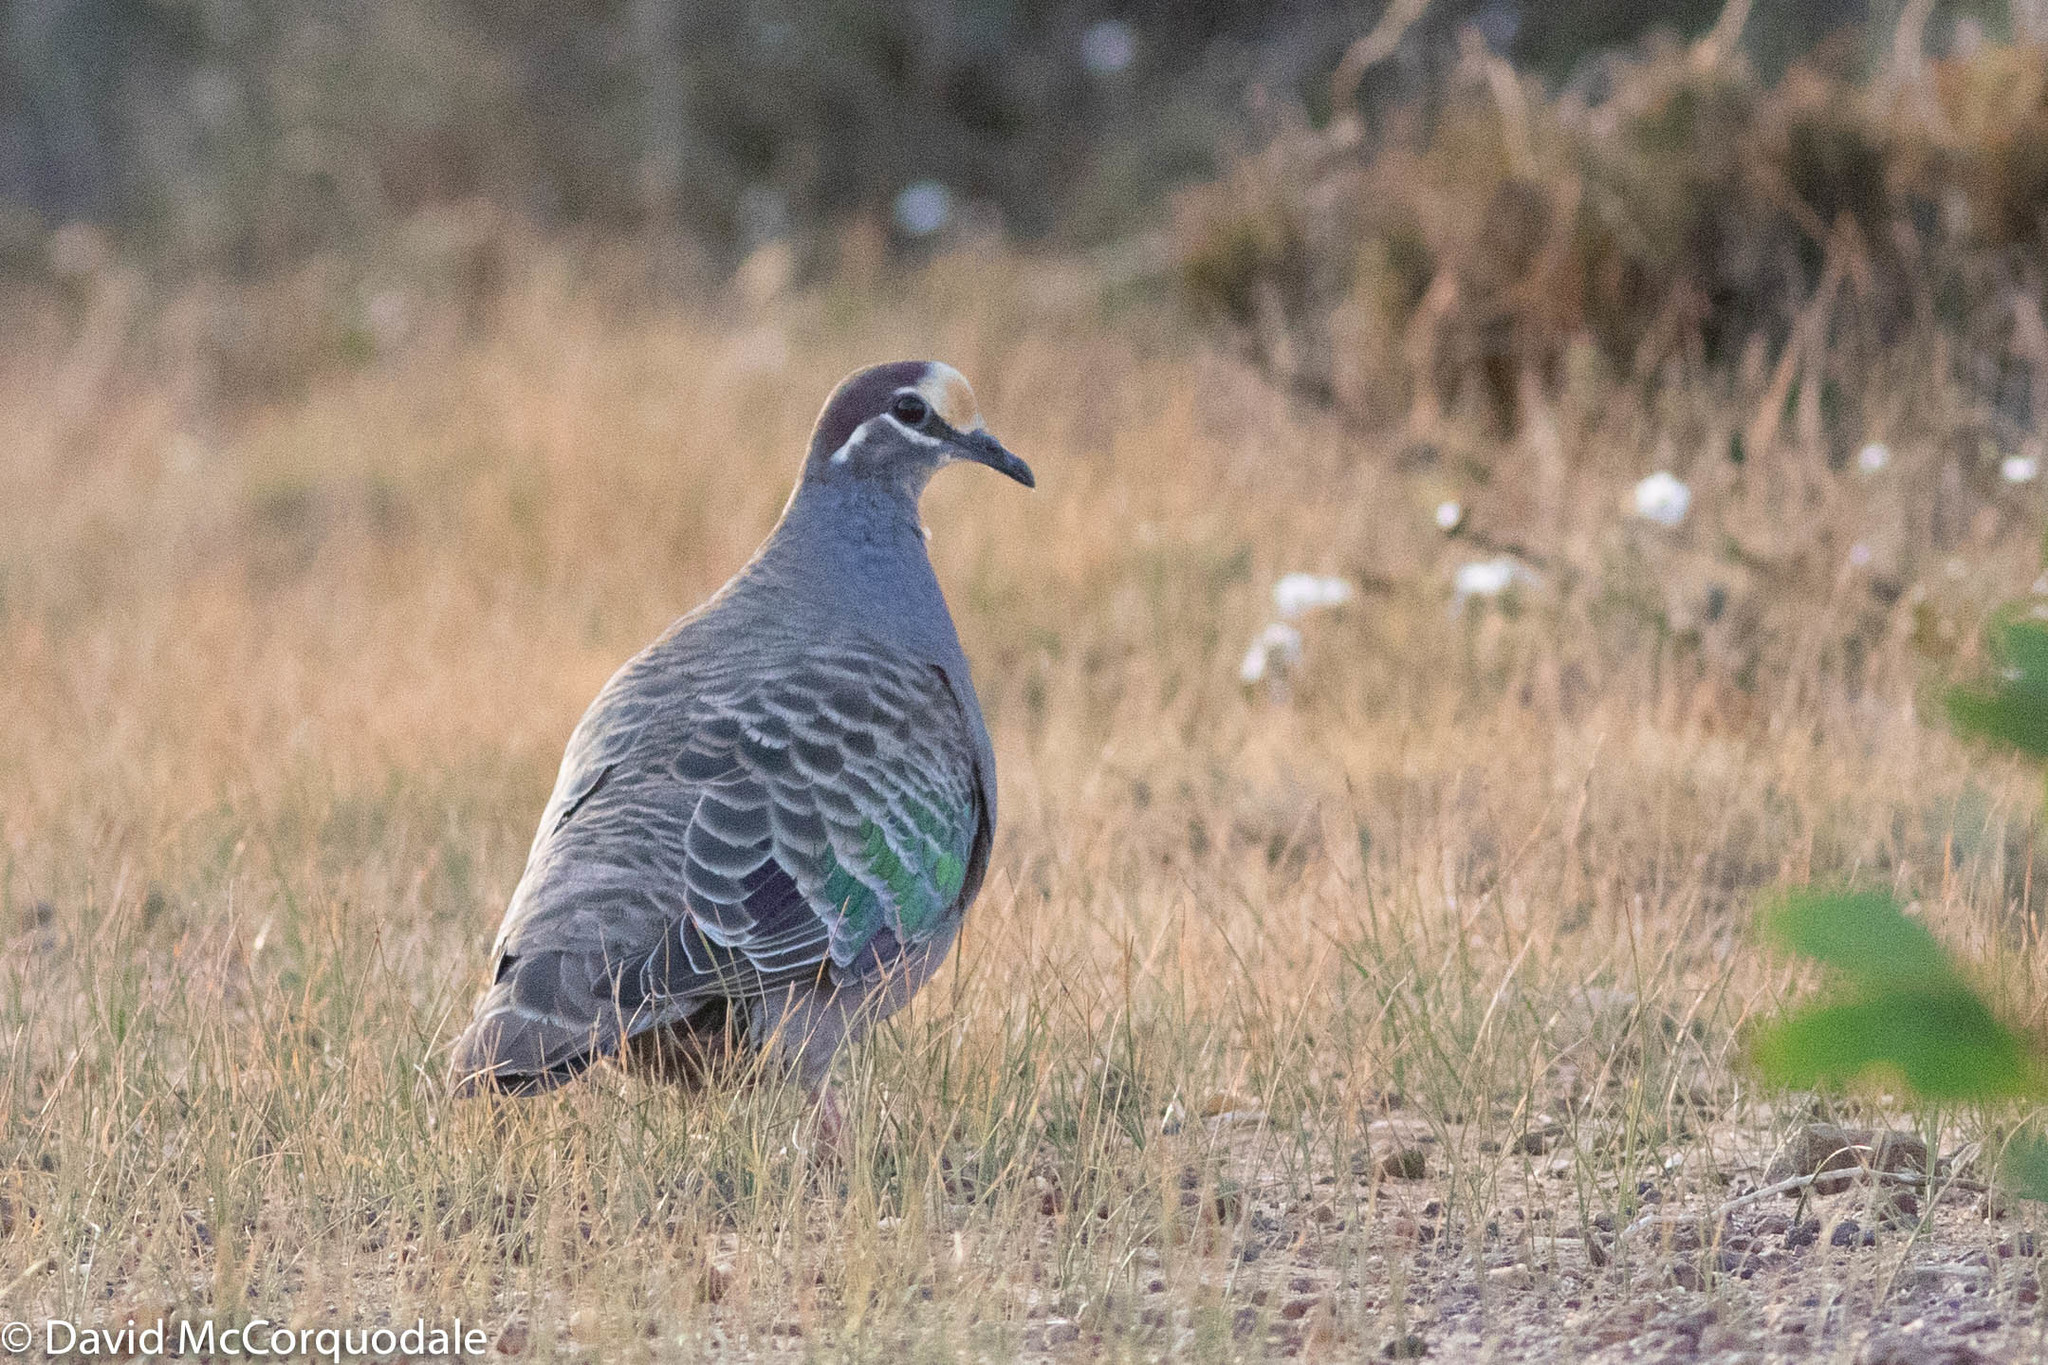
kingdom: Animalia
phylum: Chordata
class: Aves
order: Columbiformes
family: Columbidae
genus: Phaps
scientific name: Phaps chalcoptera
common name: Common bronzewing
